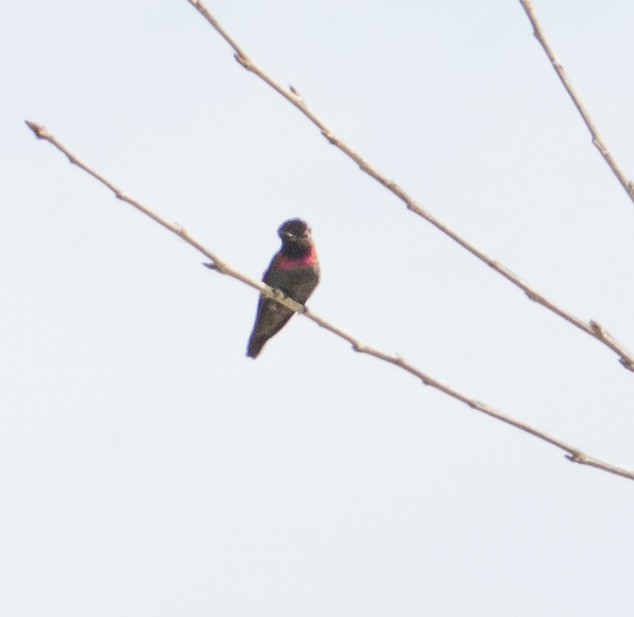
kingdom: Animalia
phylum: Chordata
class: Aves
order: Apodiformes
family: Trochilidae
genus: Calypte
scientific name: Calypte anna
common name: Anna's hummingbird
